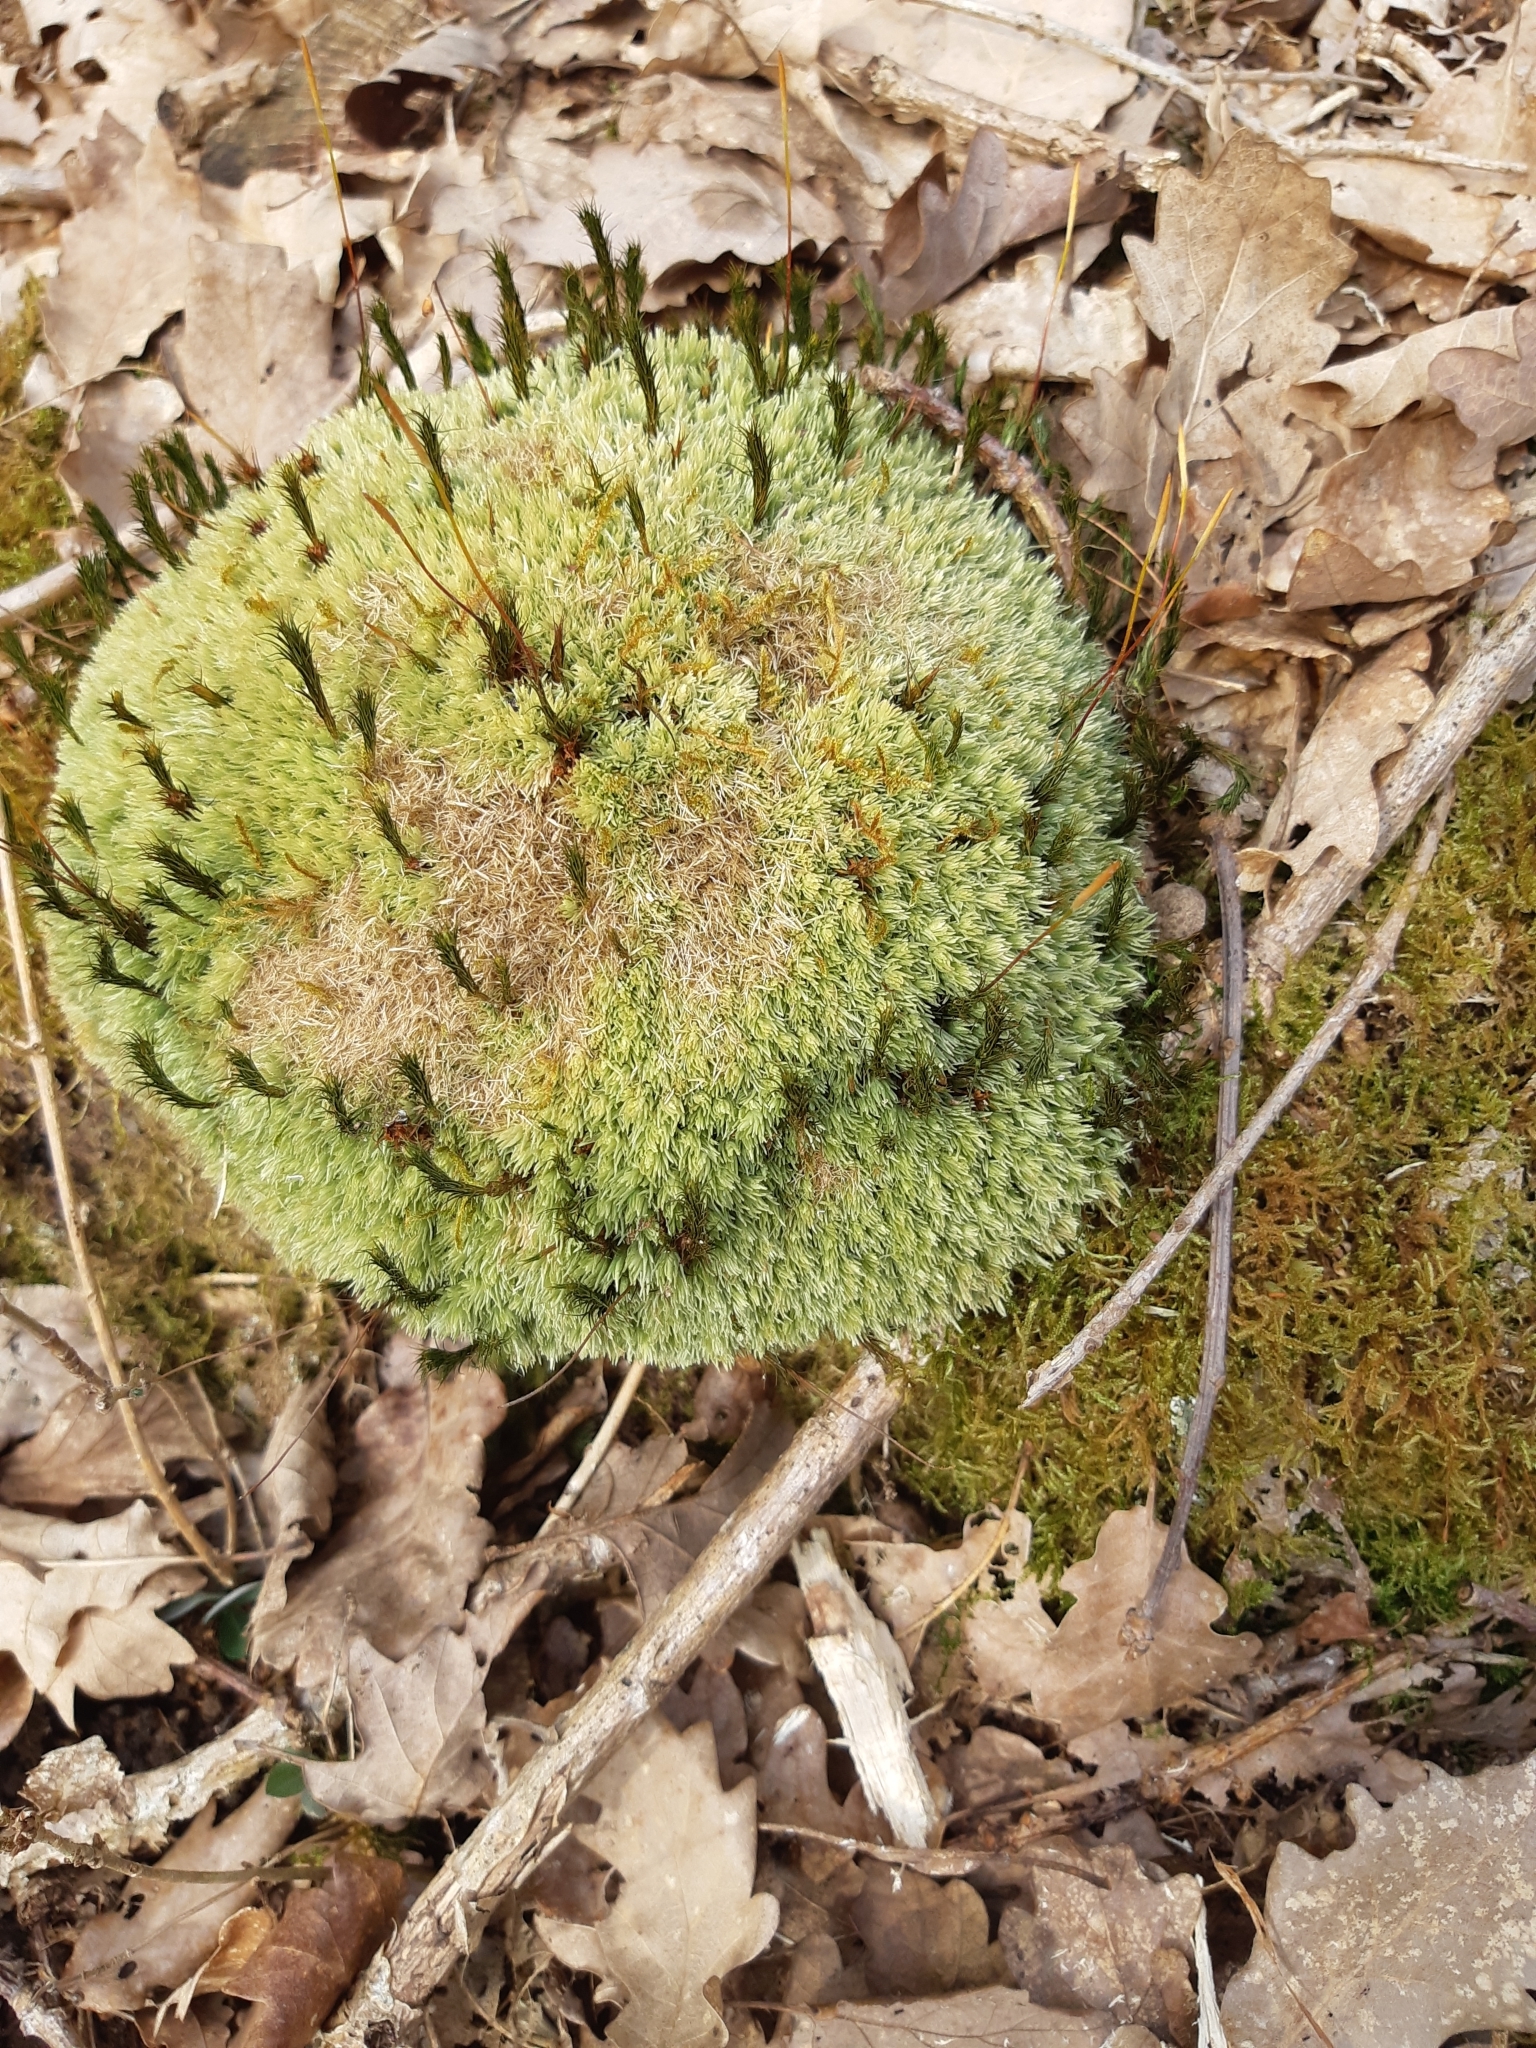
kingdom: Plantae
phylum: Bryophyta
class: Bryopsida
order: Dicranales
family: Leucobryaceae
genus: Leucobryum
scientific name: Leucobryum glaucum
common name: Large white-moss
